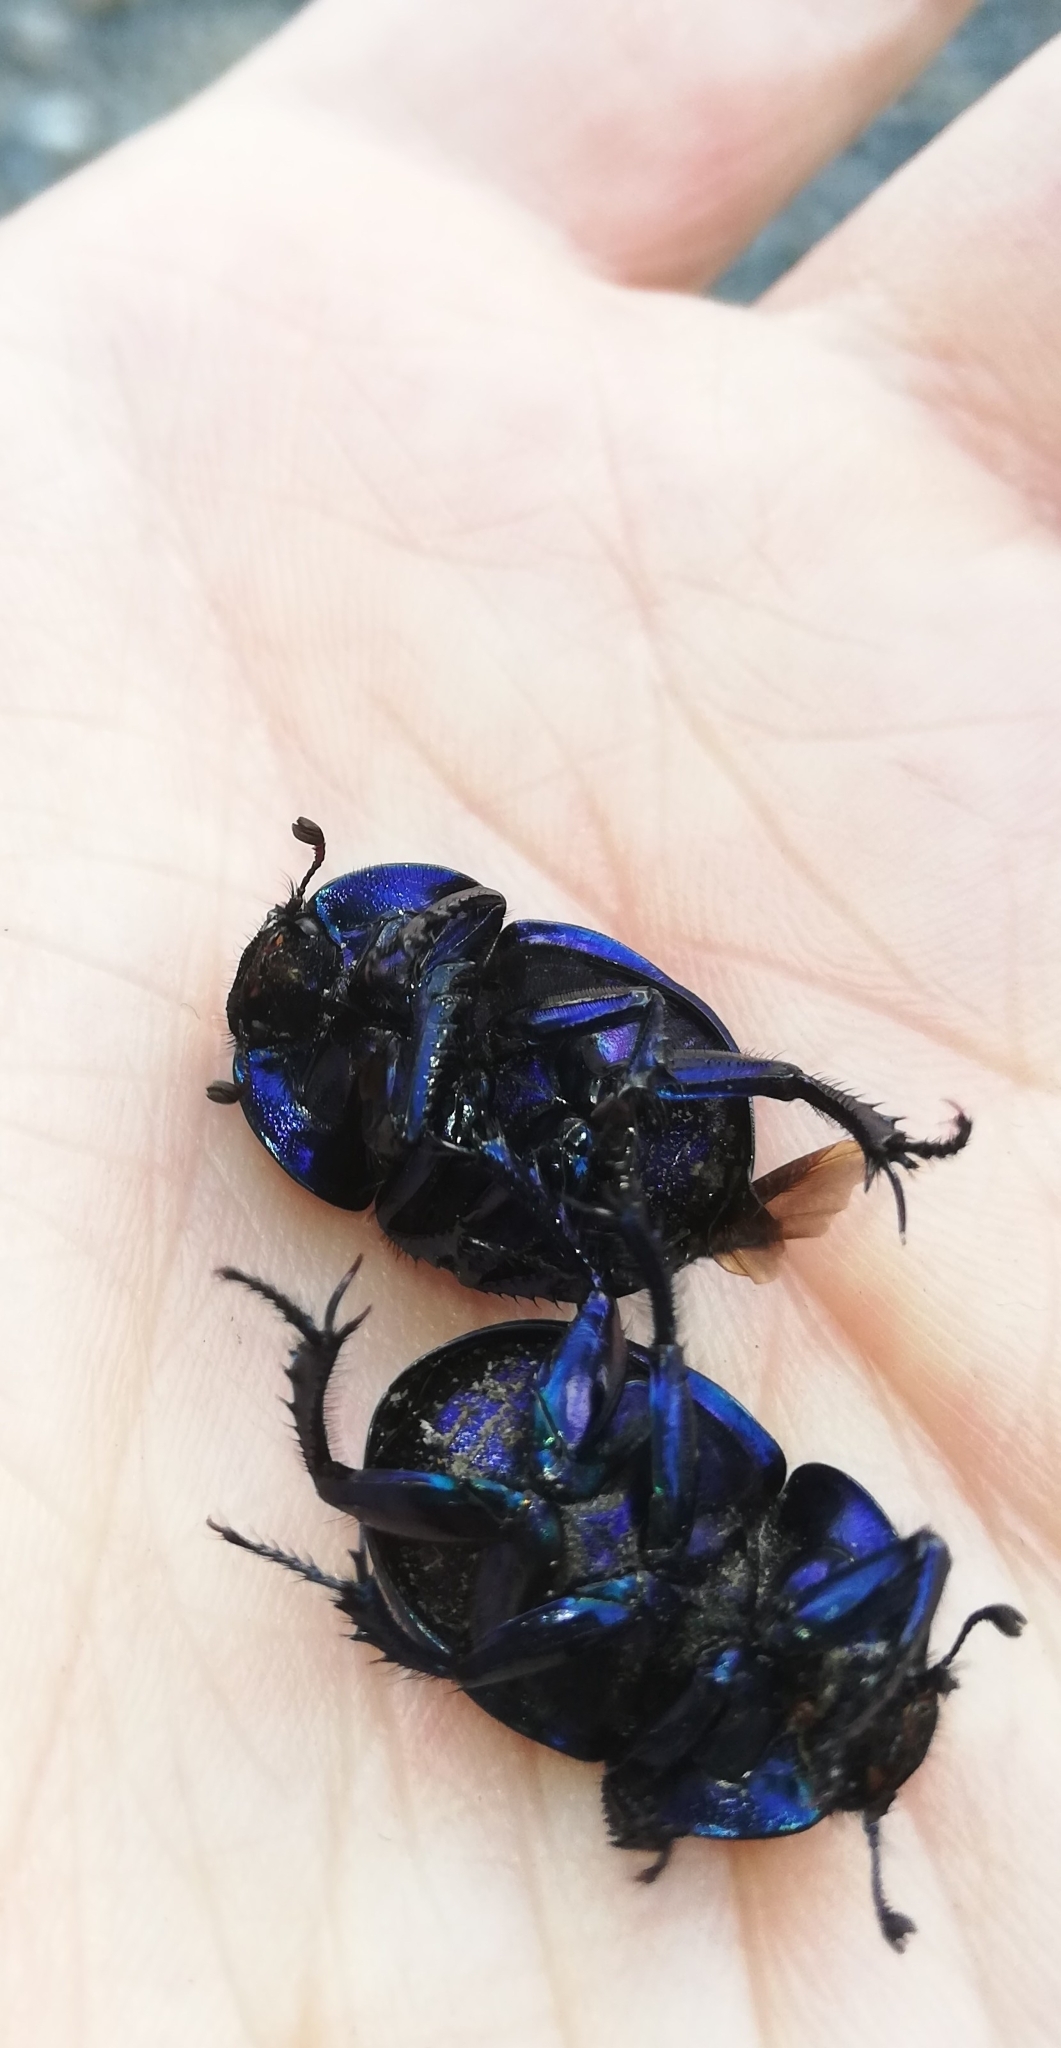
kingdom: Animalia
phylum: Arthropoda
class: Insecta
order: Coleoptera
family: Geotrupidae
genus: Trypocopris
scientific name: Trypocopris vernalis
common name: Spring dumbledor
